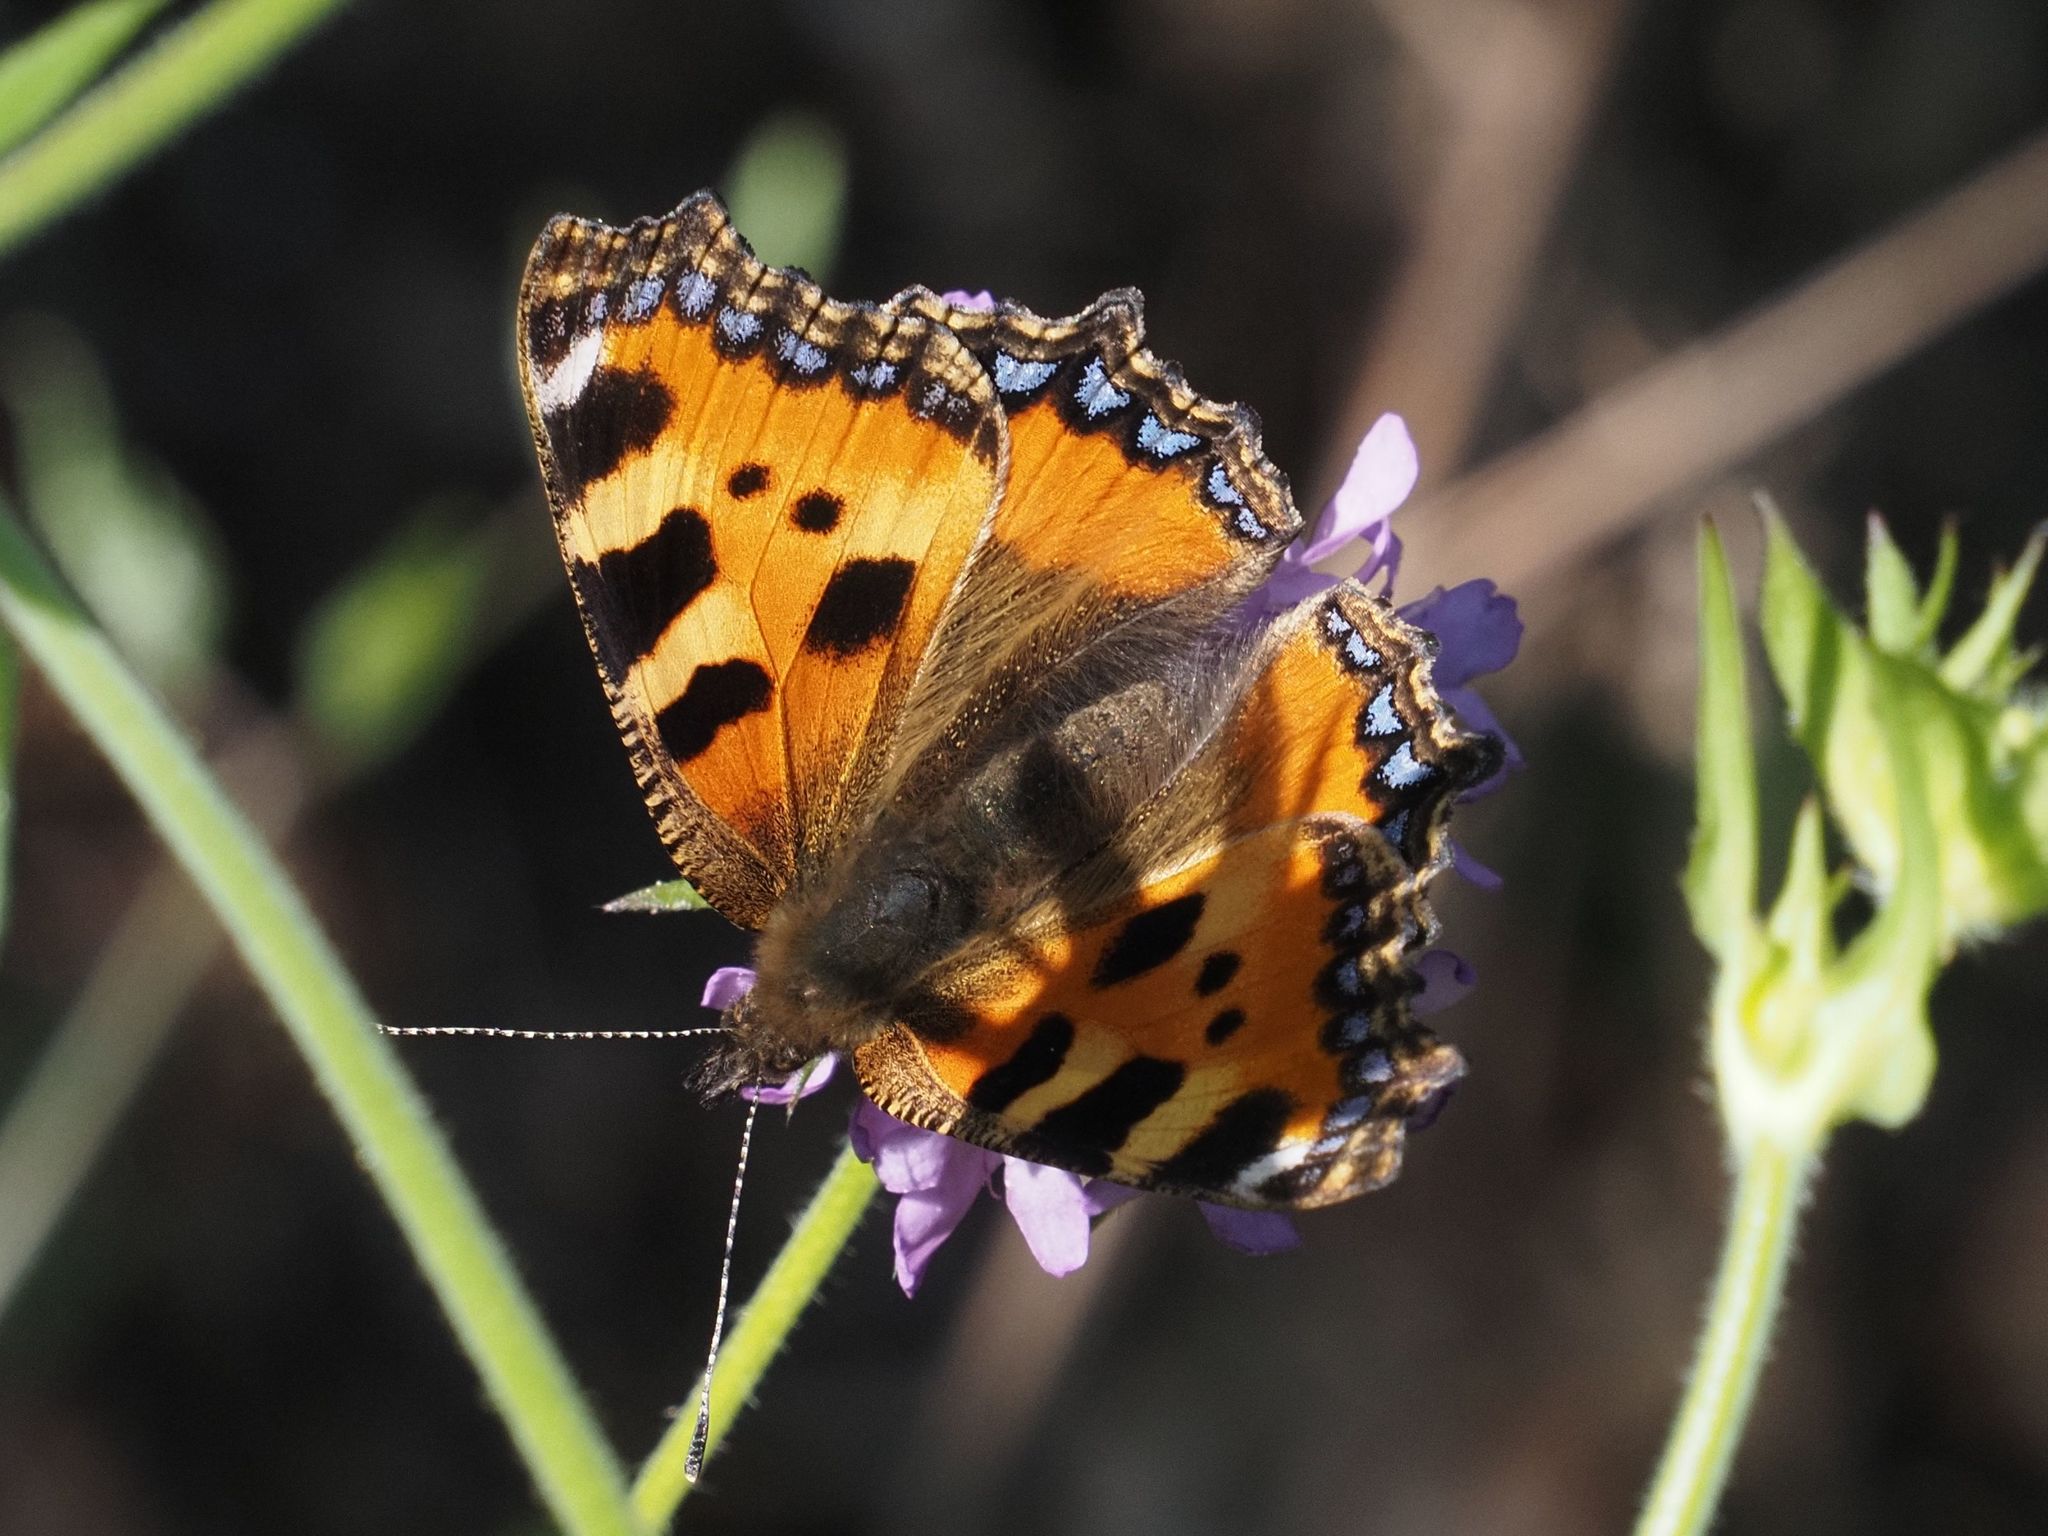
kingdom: Animalia
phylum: Arthropoda
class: Insecta
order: Lepidoptera
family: Nymphalidae
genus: Aglais
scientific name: Aglais urticae
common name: Small tortoiseshell
